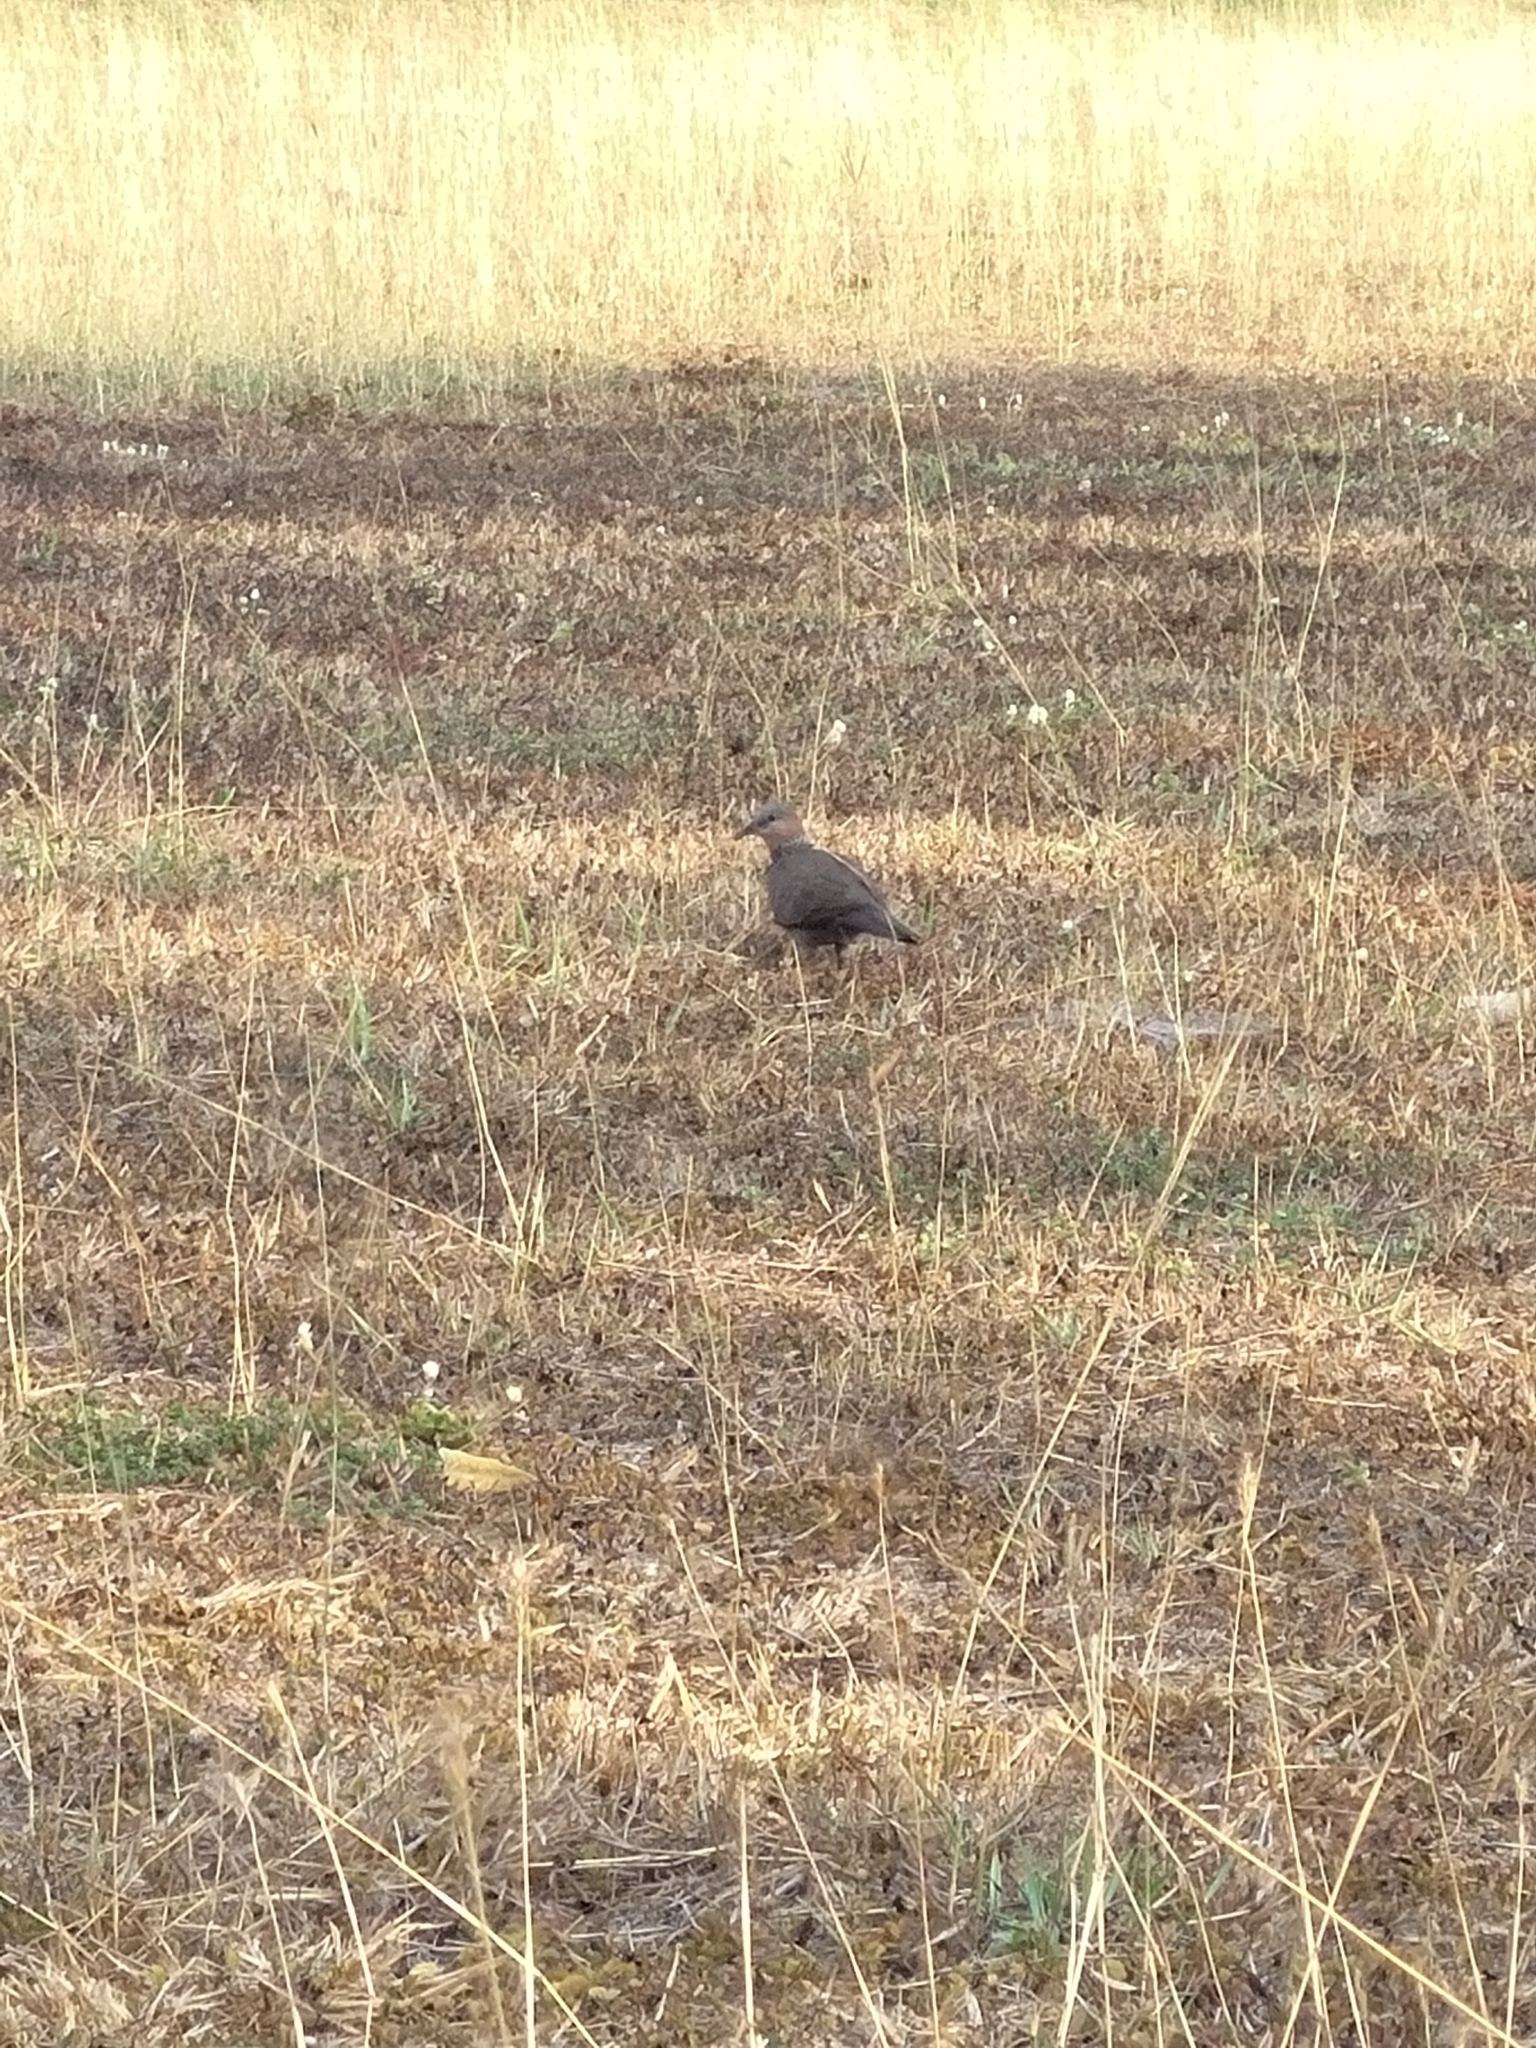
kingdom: Animalia
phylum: Chordata
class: Aves
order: Columbiformes
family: Columbidae
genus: Spilopelia
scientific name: Spilopelia chinensis
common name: Spotted dove
